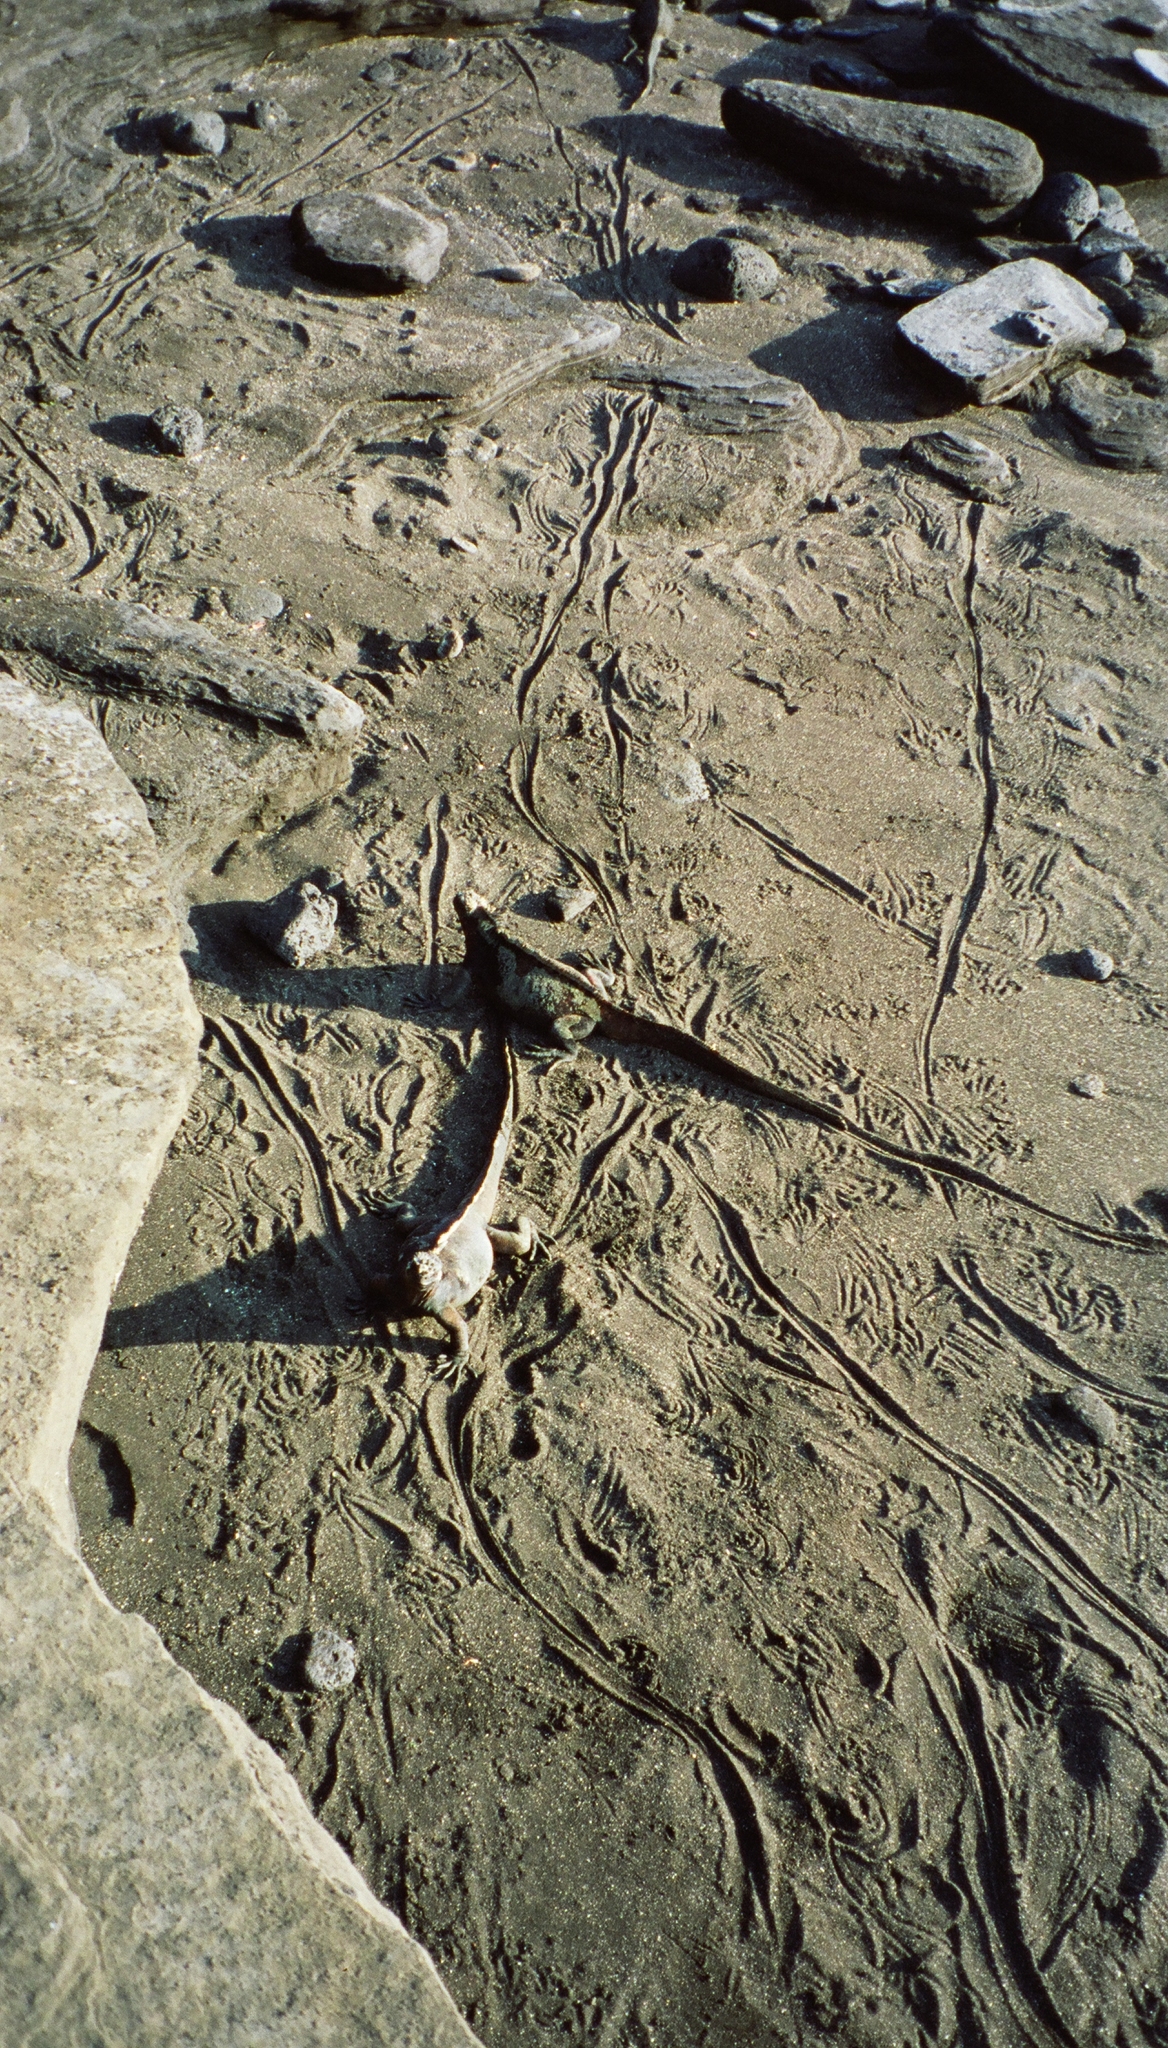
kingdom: Animalia
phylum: Chordata
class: Squamata
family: Iguanidae
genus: Amblyrhynchus
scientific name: Amblyrhynchus cristatus
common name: Marine iguana
